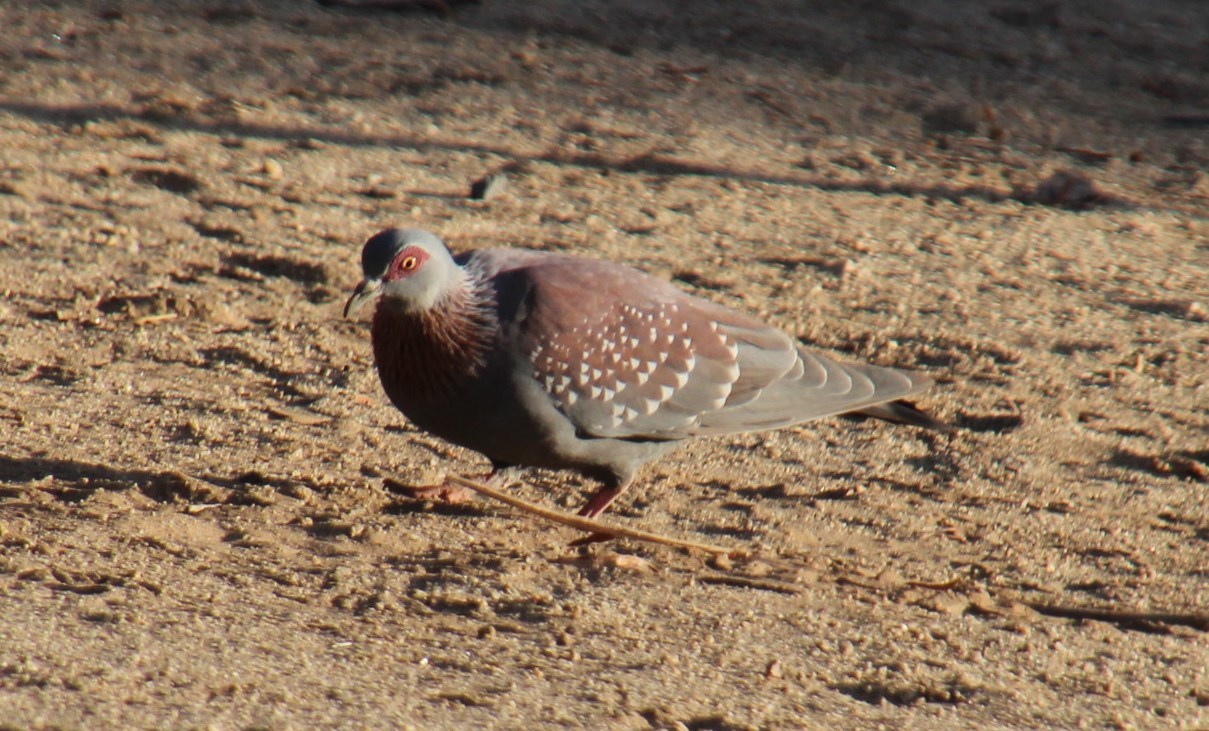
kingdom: Animalia
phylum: Chordata
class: Aves
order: Columbiformes
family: Columbidae
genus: Columba
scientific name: Columba guinea
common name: Speckled pigeon
